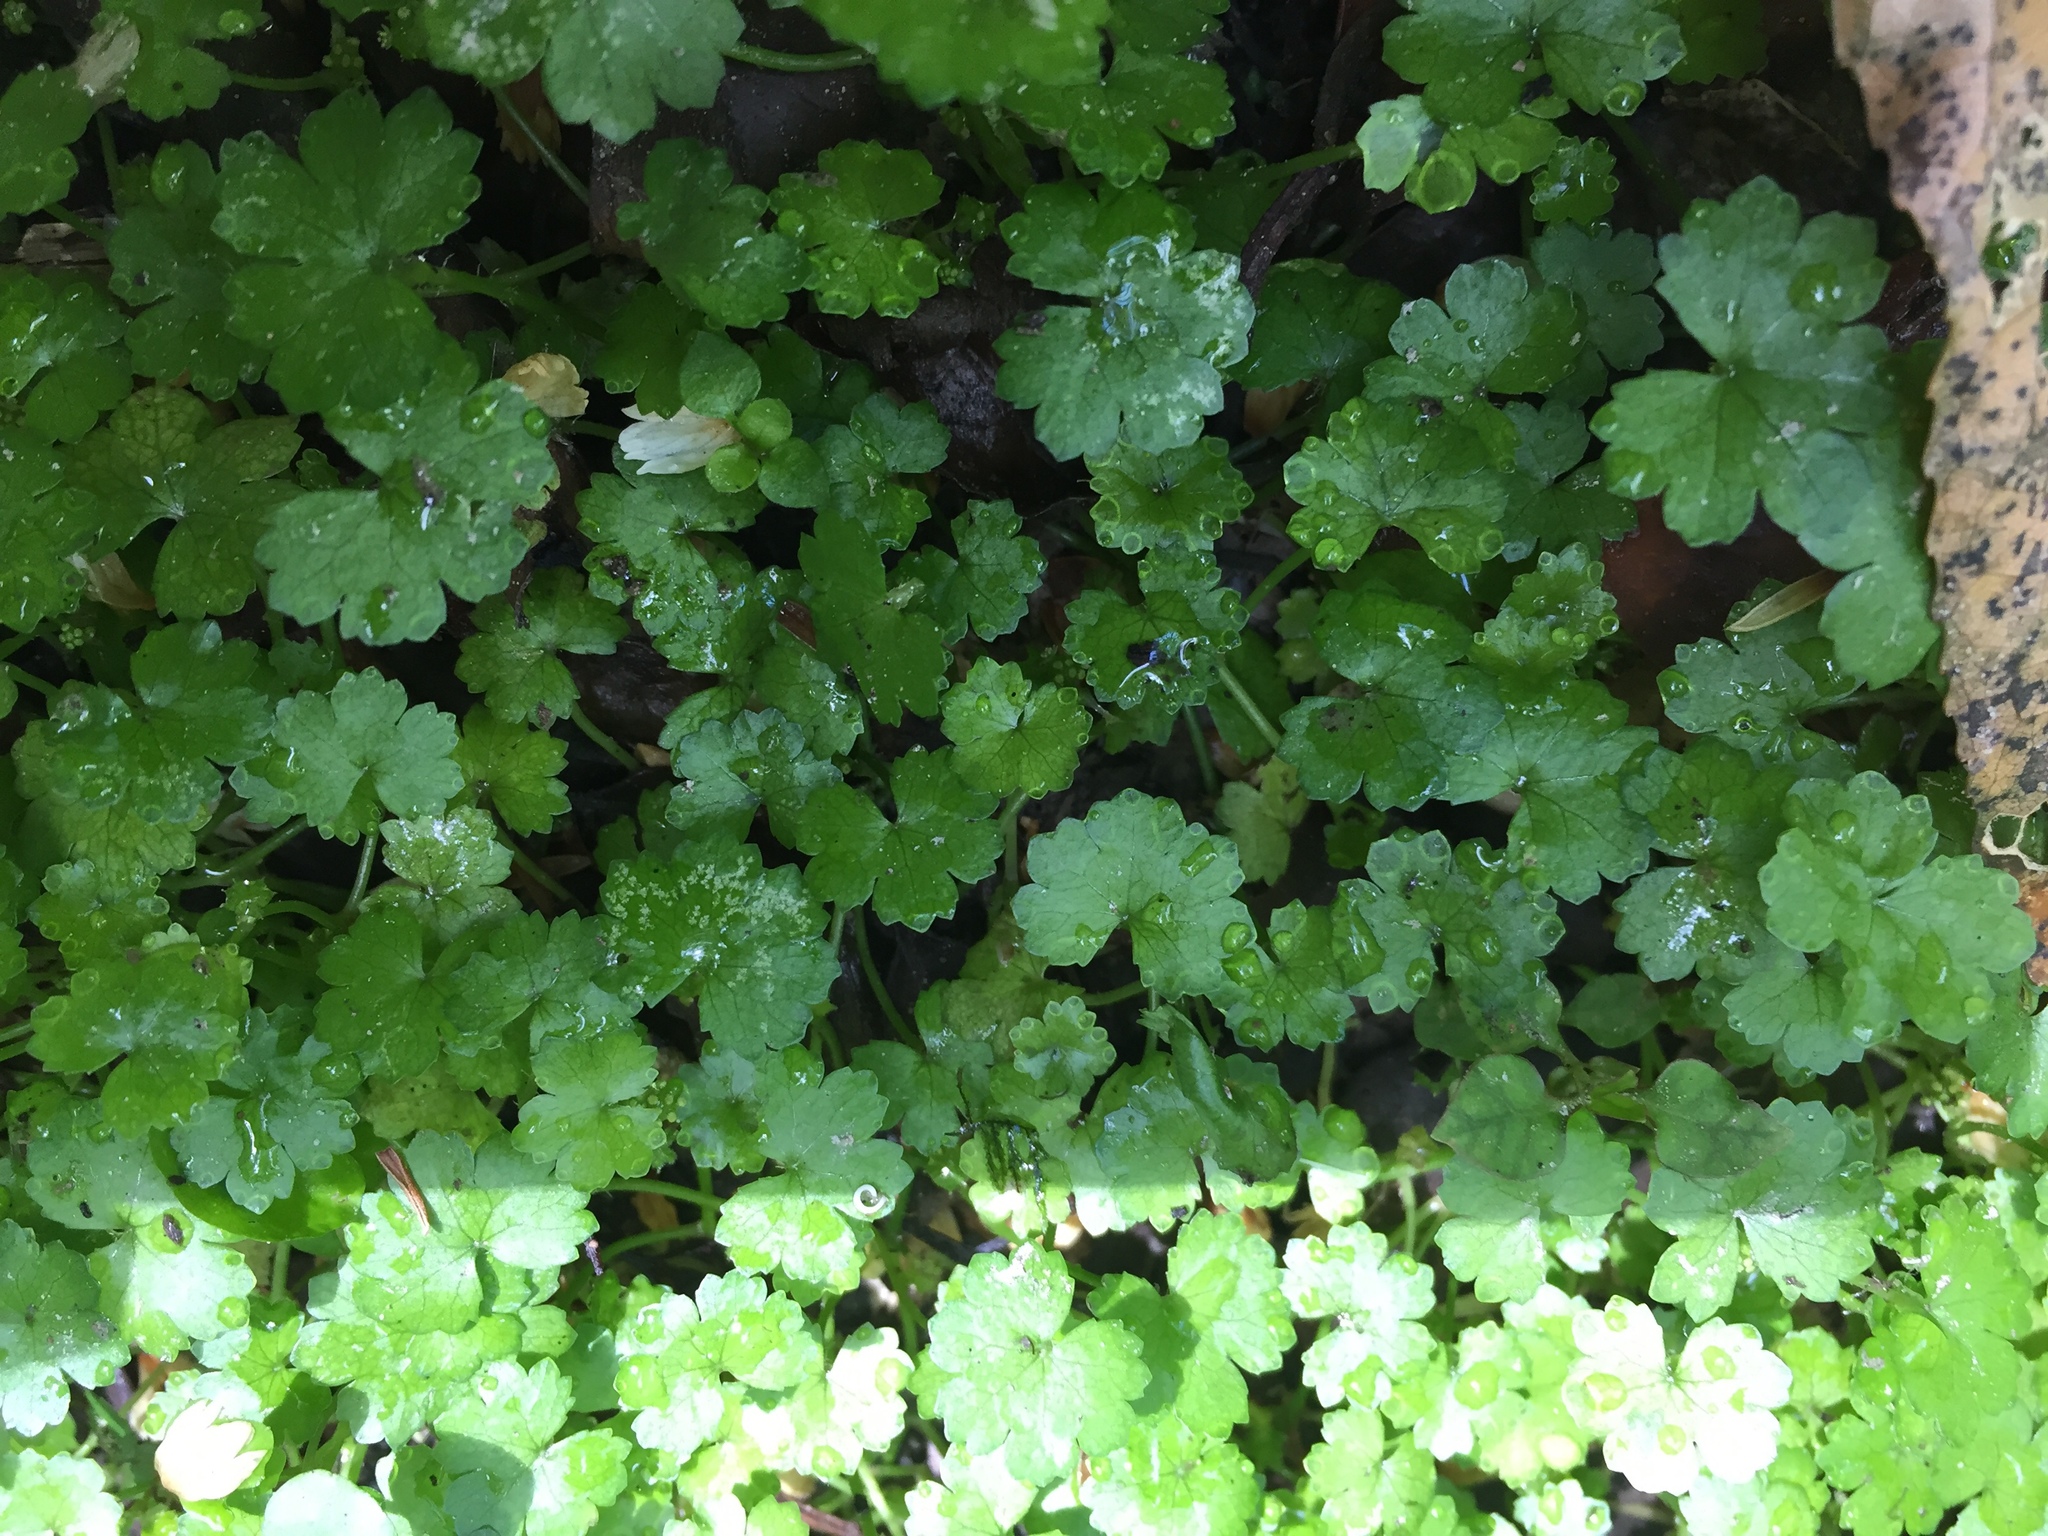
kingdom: Plantae
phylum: Tracheophyta
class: Magnoliopsida
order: Apiales
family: Araliaceae
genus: Hydrocotyle
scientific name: Hydrocotyle heteromeria
